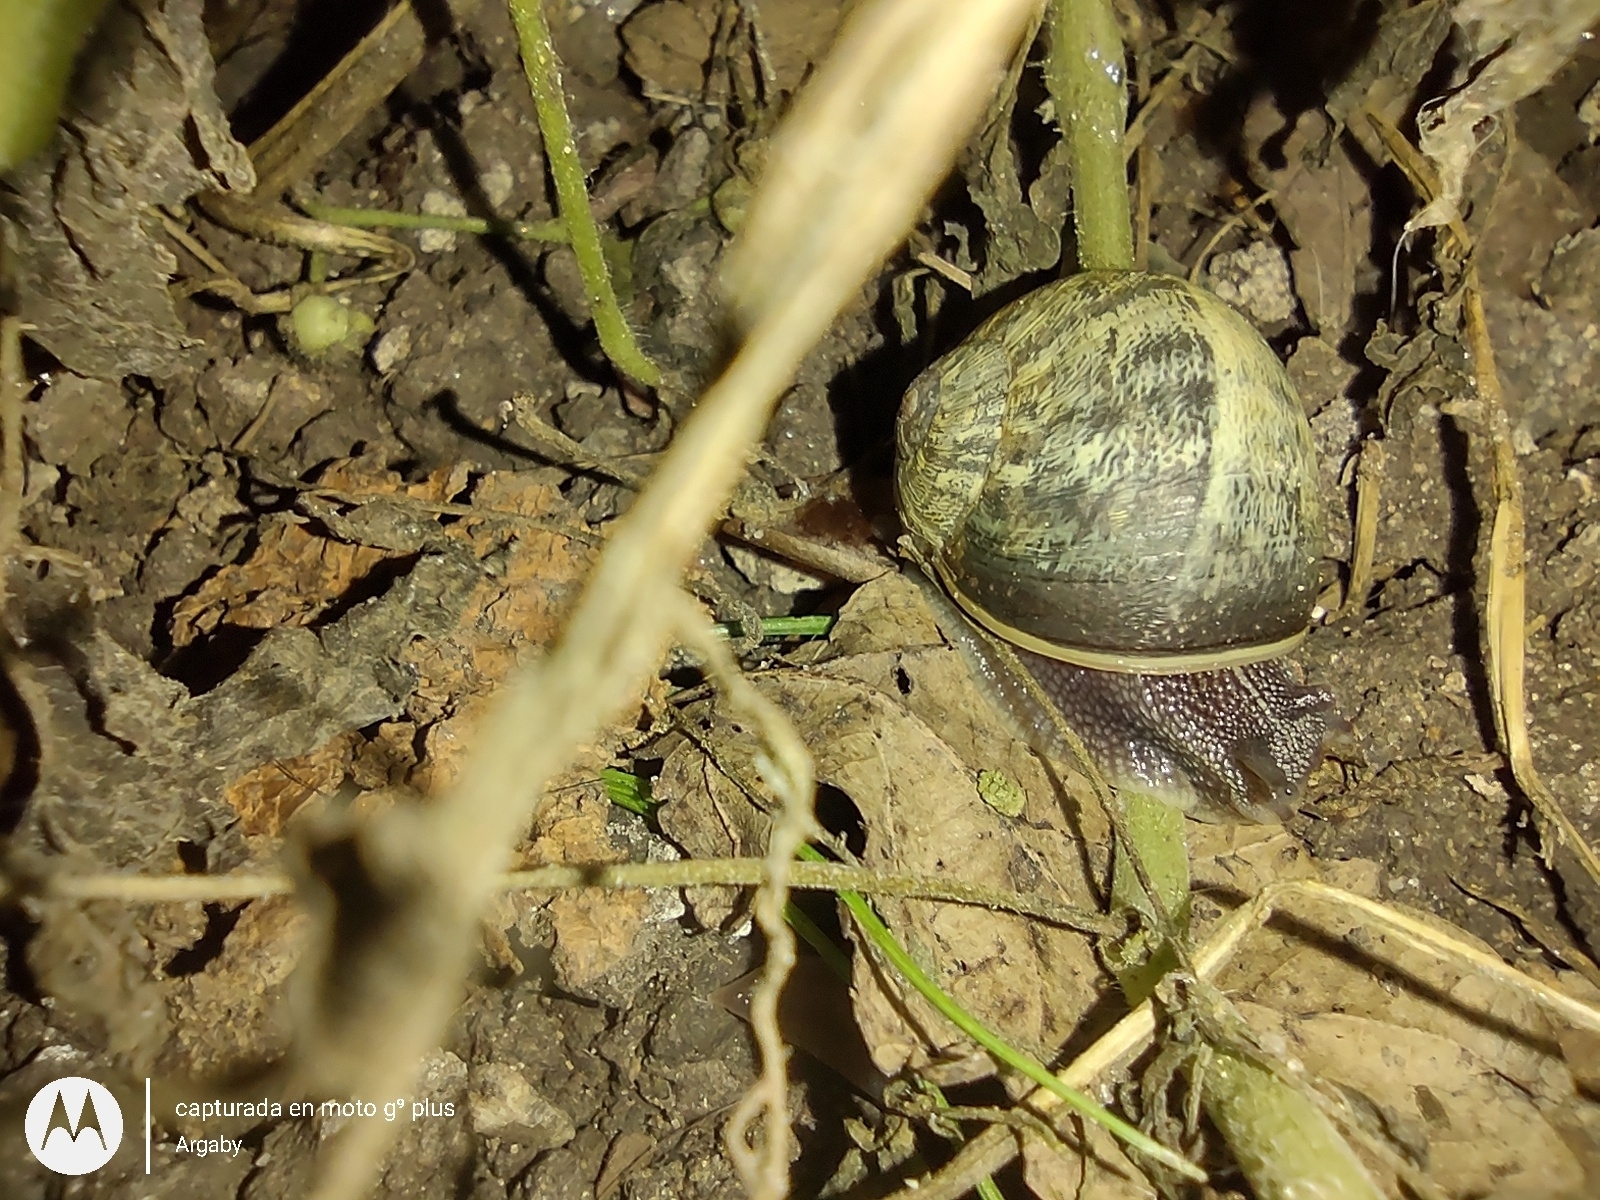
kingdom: Animalia
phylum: Mollusca
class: Gastropoda
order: Stylommatophora
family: Helicidae
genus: Cornu
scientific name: Cornu aspersum
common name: Brown garden snail
